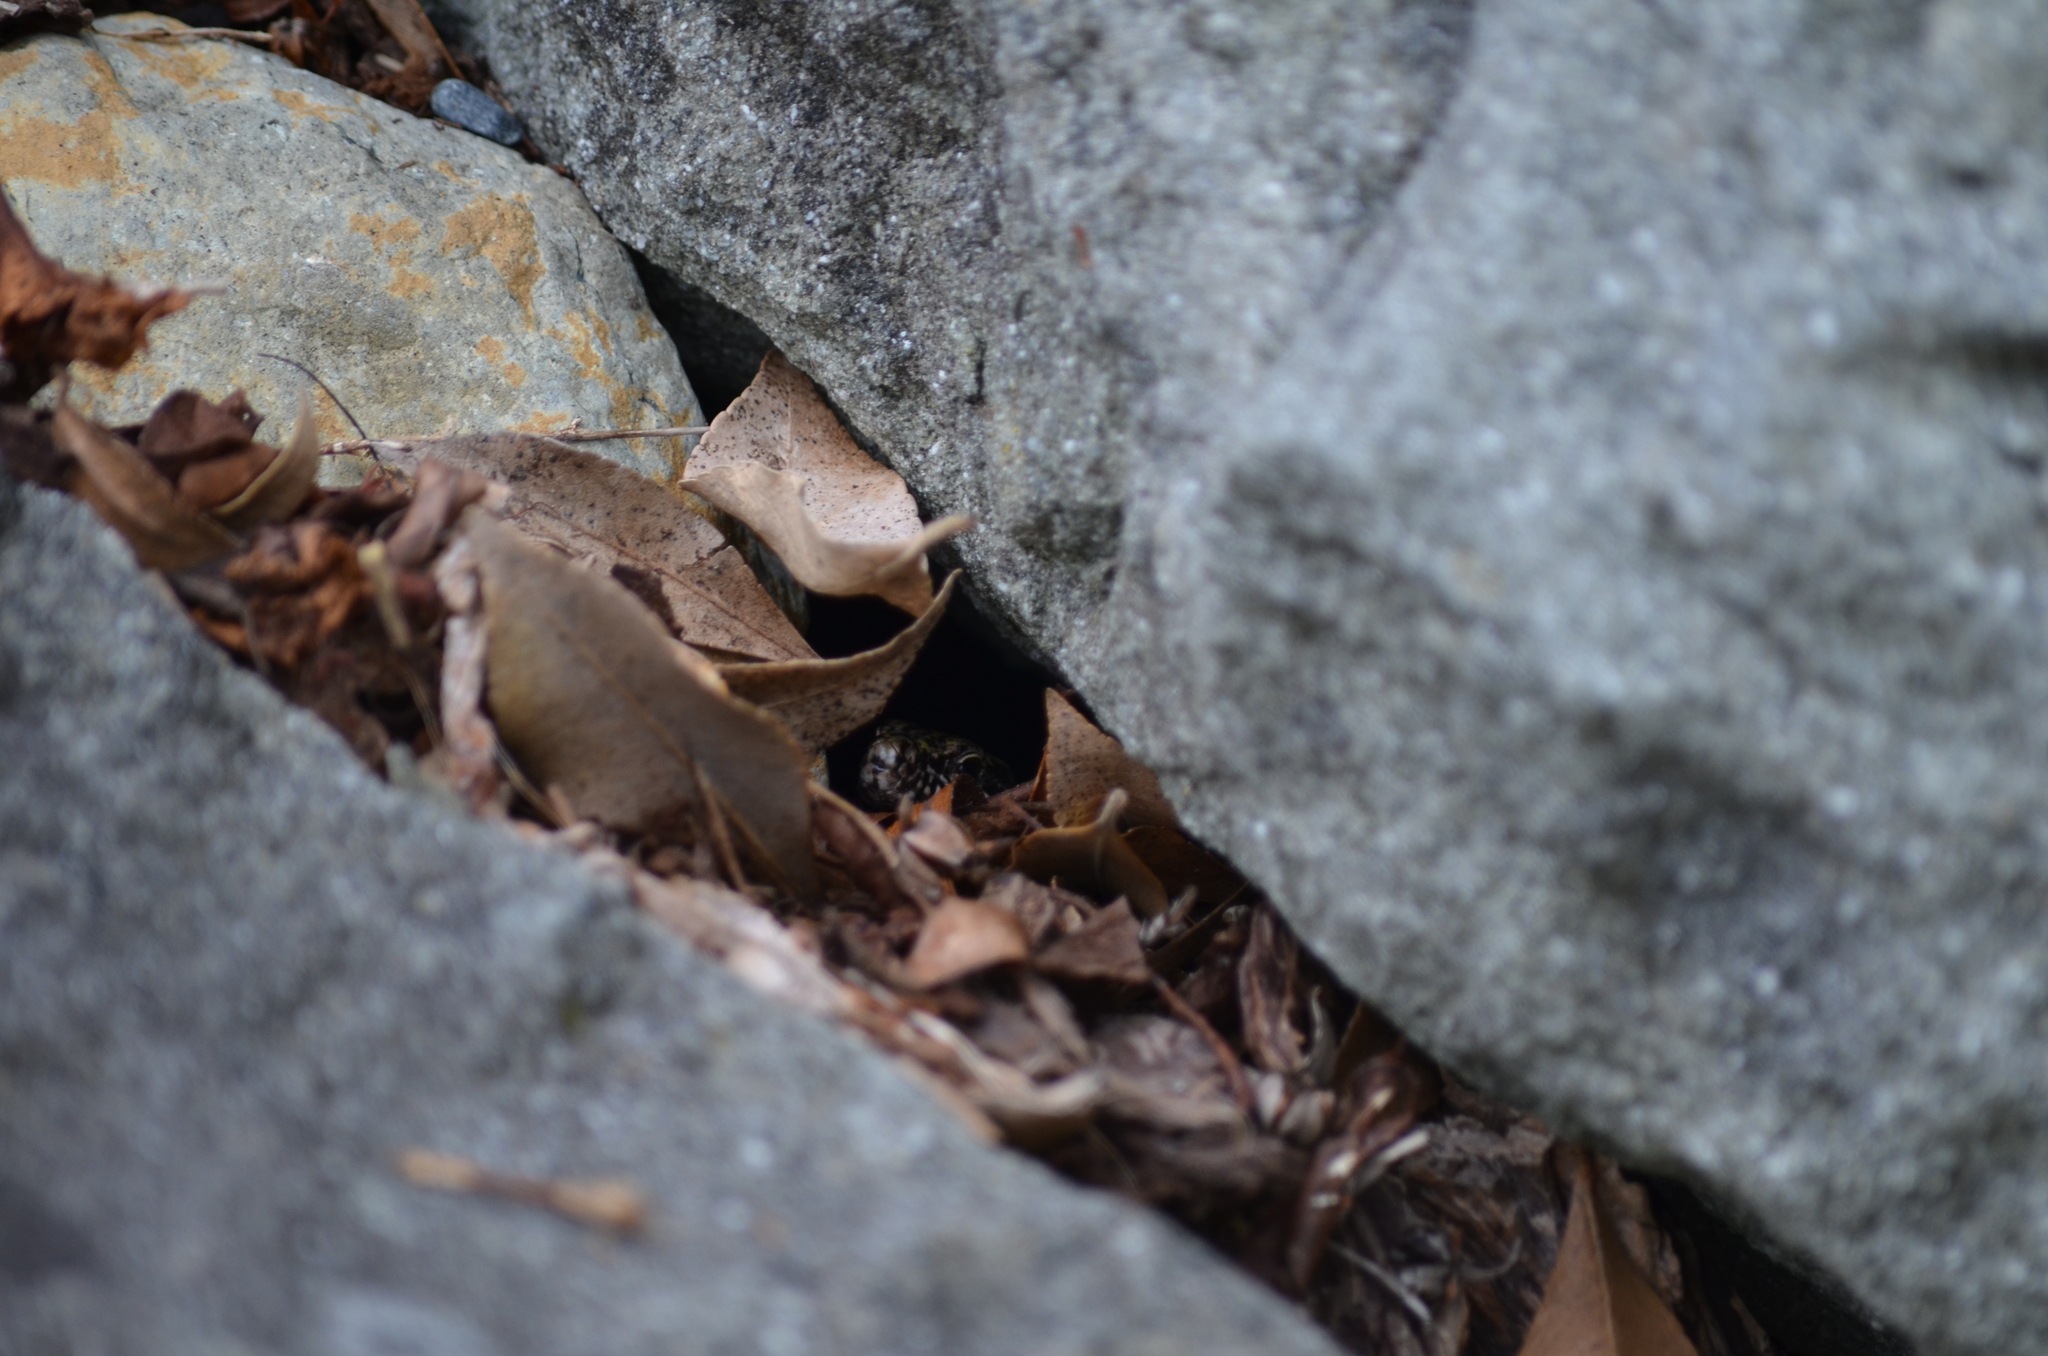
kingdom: Animalia
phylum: Chordata
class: Squamata
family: Lacertidae
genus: Podarcis
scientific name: Podarcis muralis
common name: Common wall lizard
